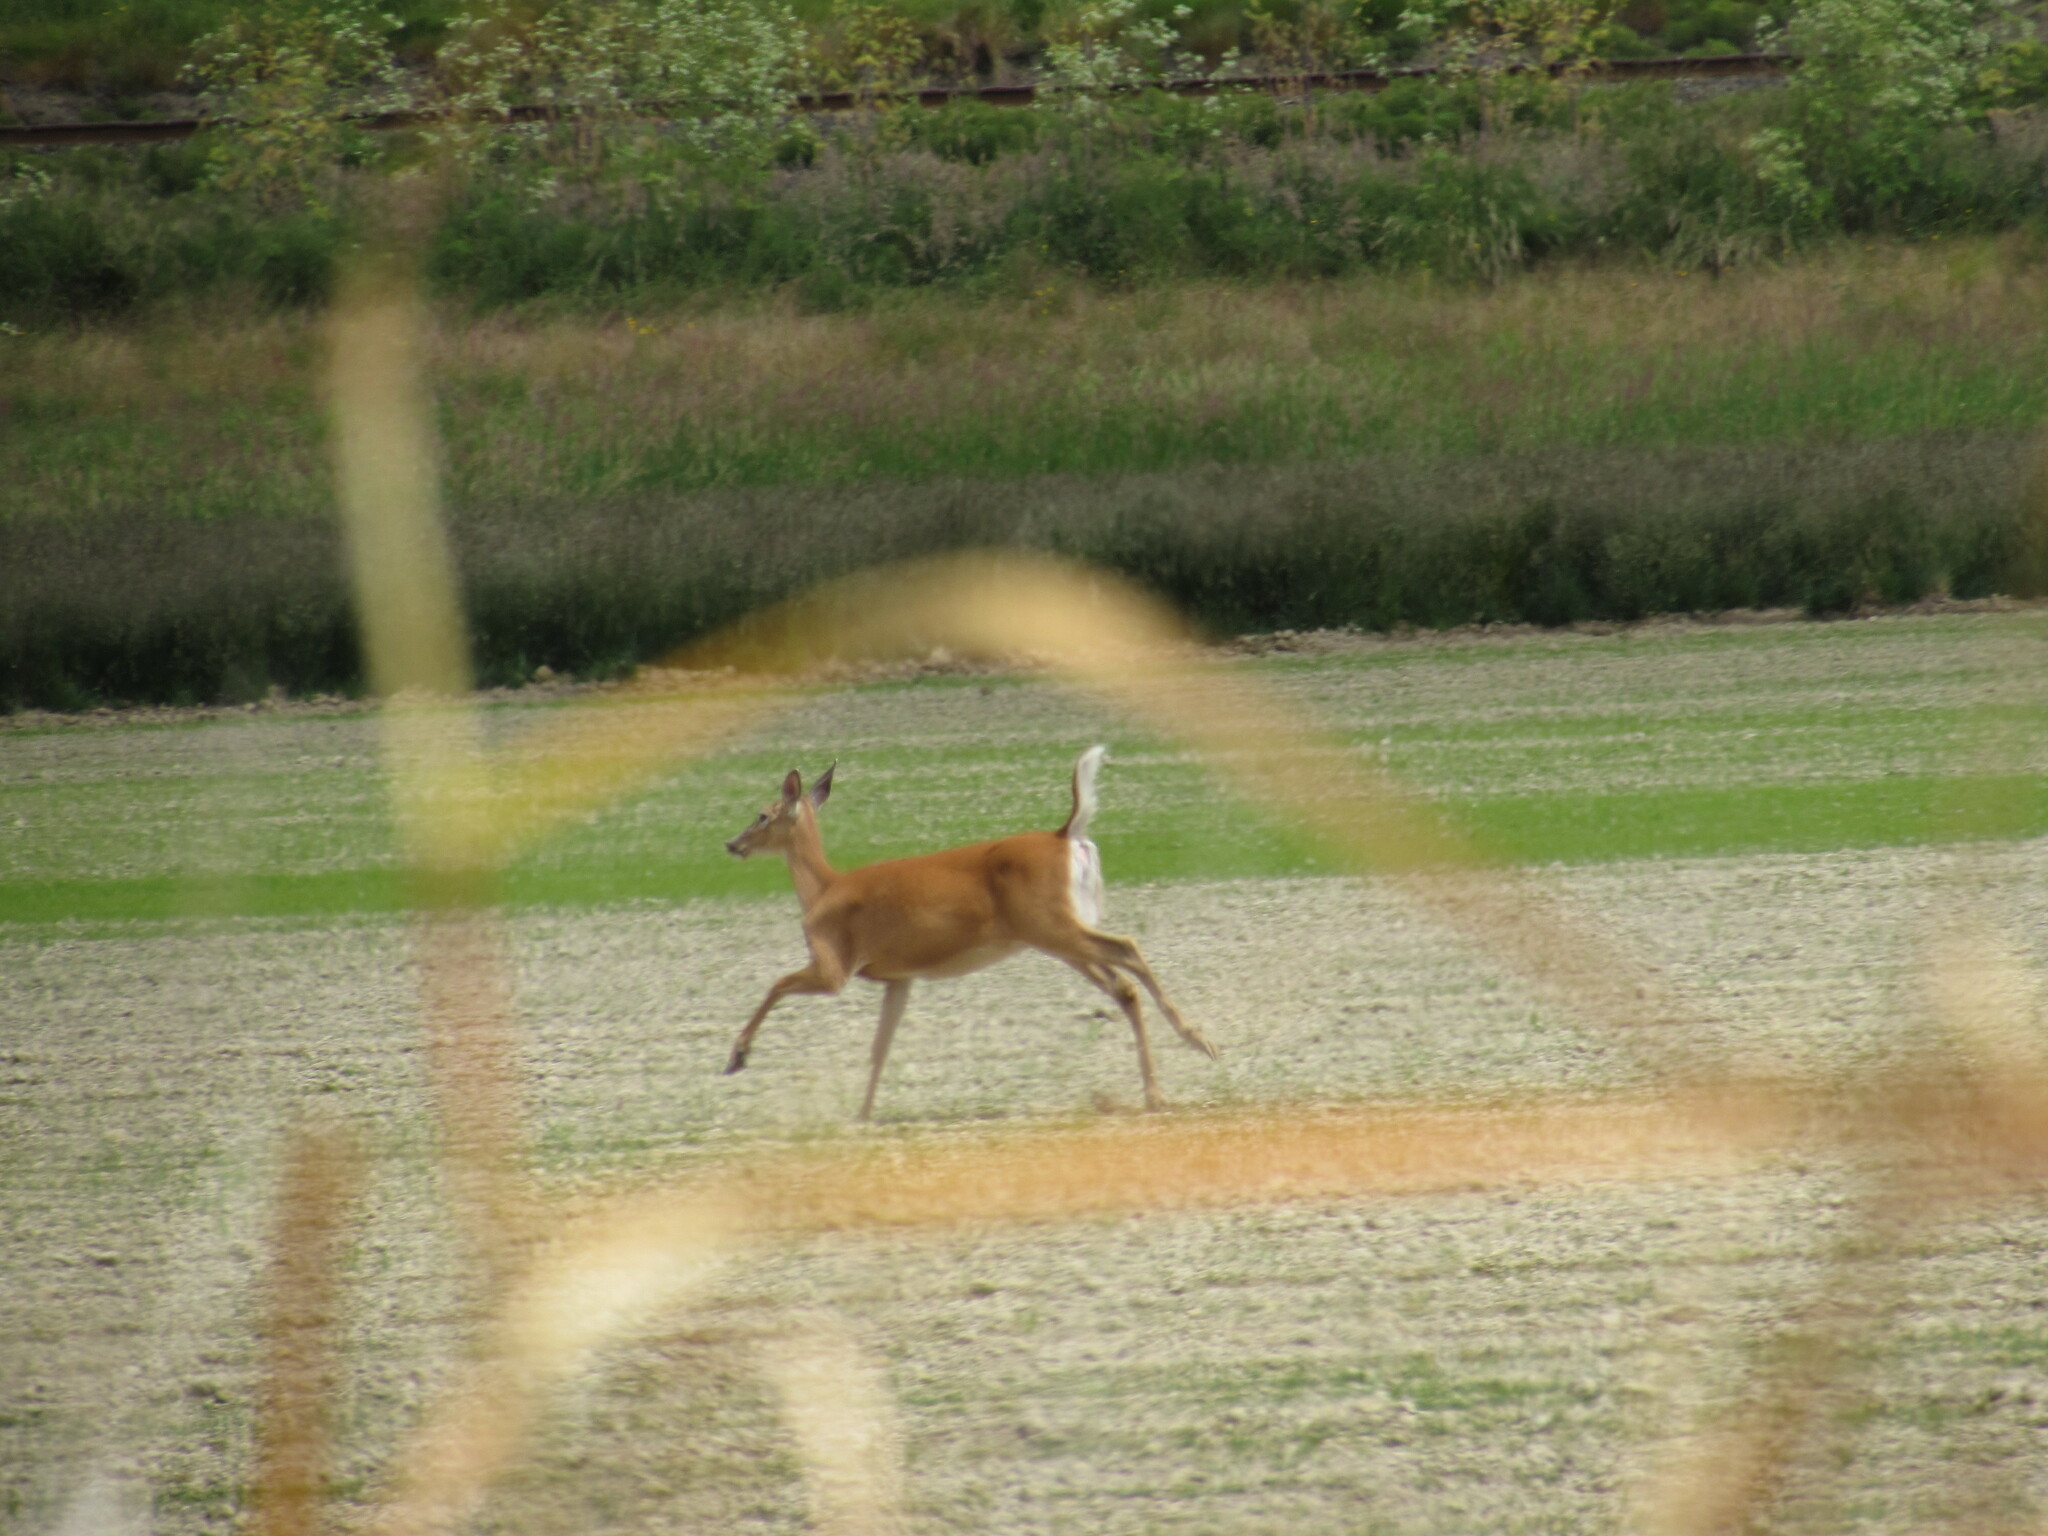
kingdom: Animalia
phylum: Chordata
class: Mammalia
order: Artiodactyla
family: Cervidae
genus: Odocoileus
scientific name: Odocoileus virginianus
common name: White-tailed deer
